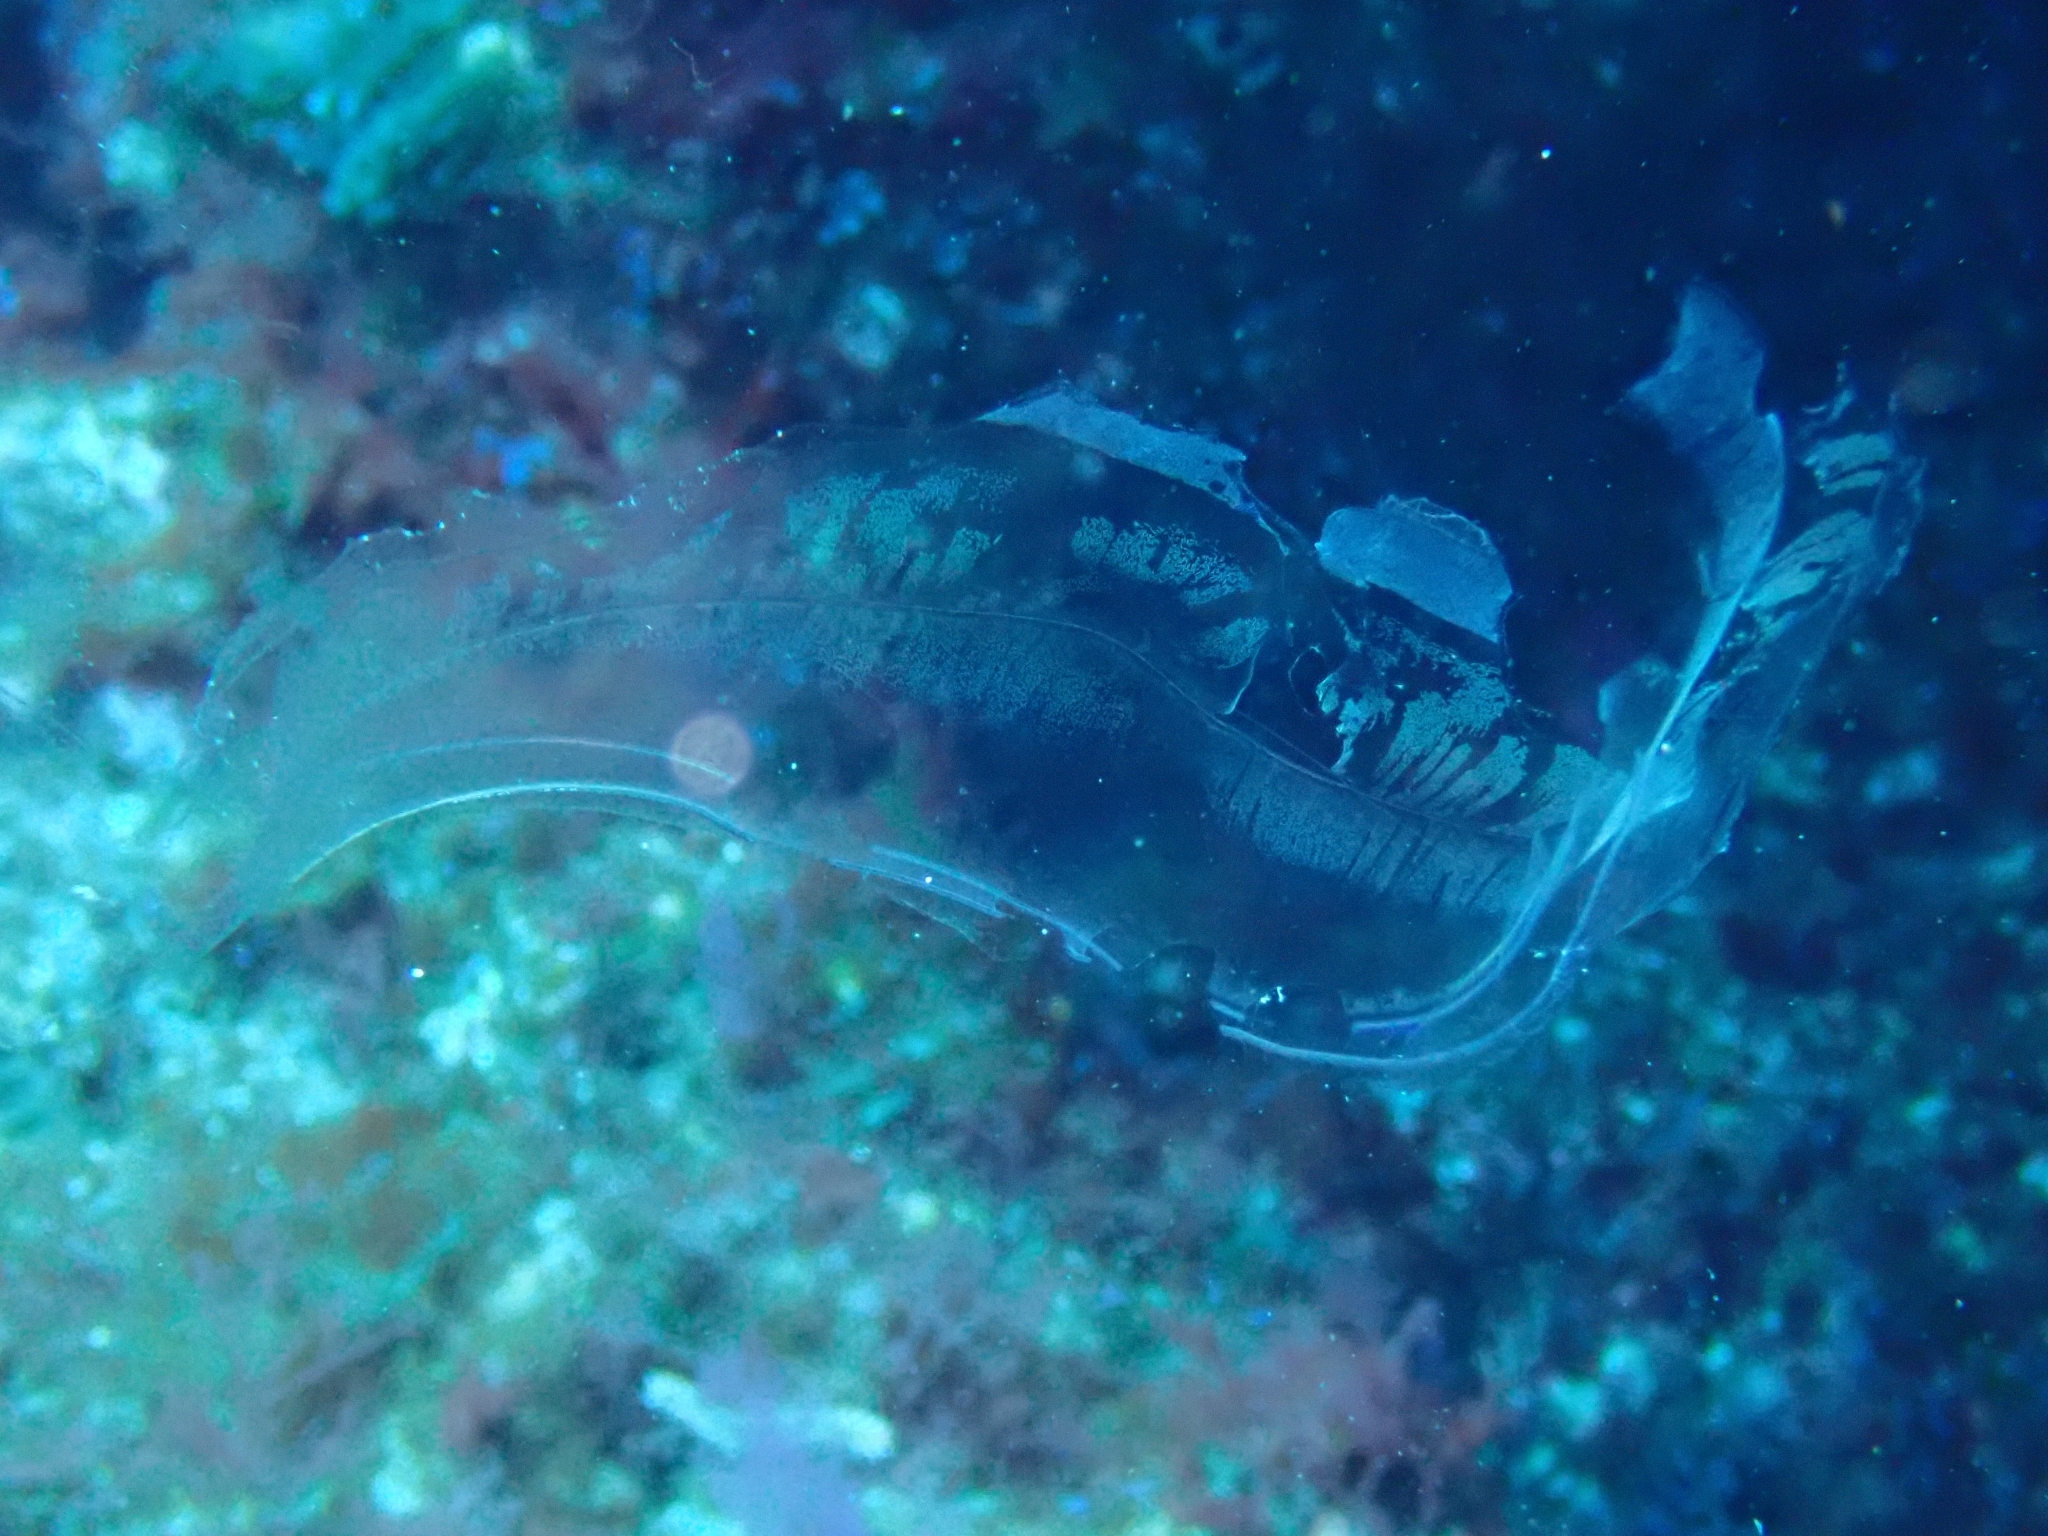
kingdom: Animalia
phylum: Ctenophora
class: Tentaculata
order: Cestida
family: Cestidae
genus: Cestum
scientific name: Cestum veneris
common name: Venus girdle
